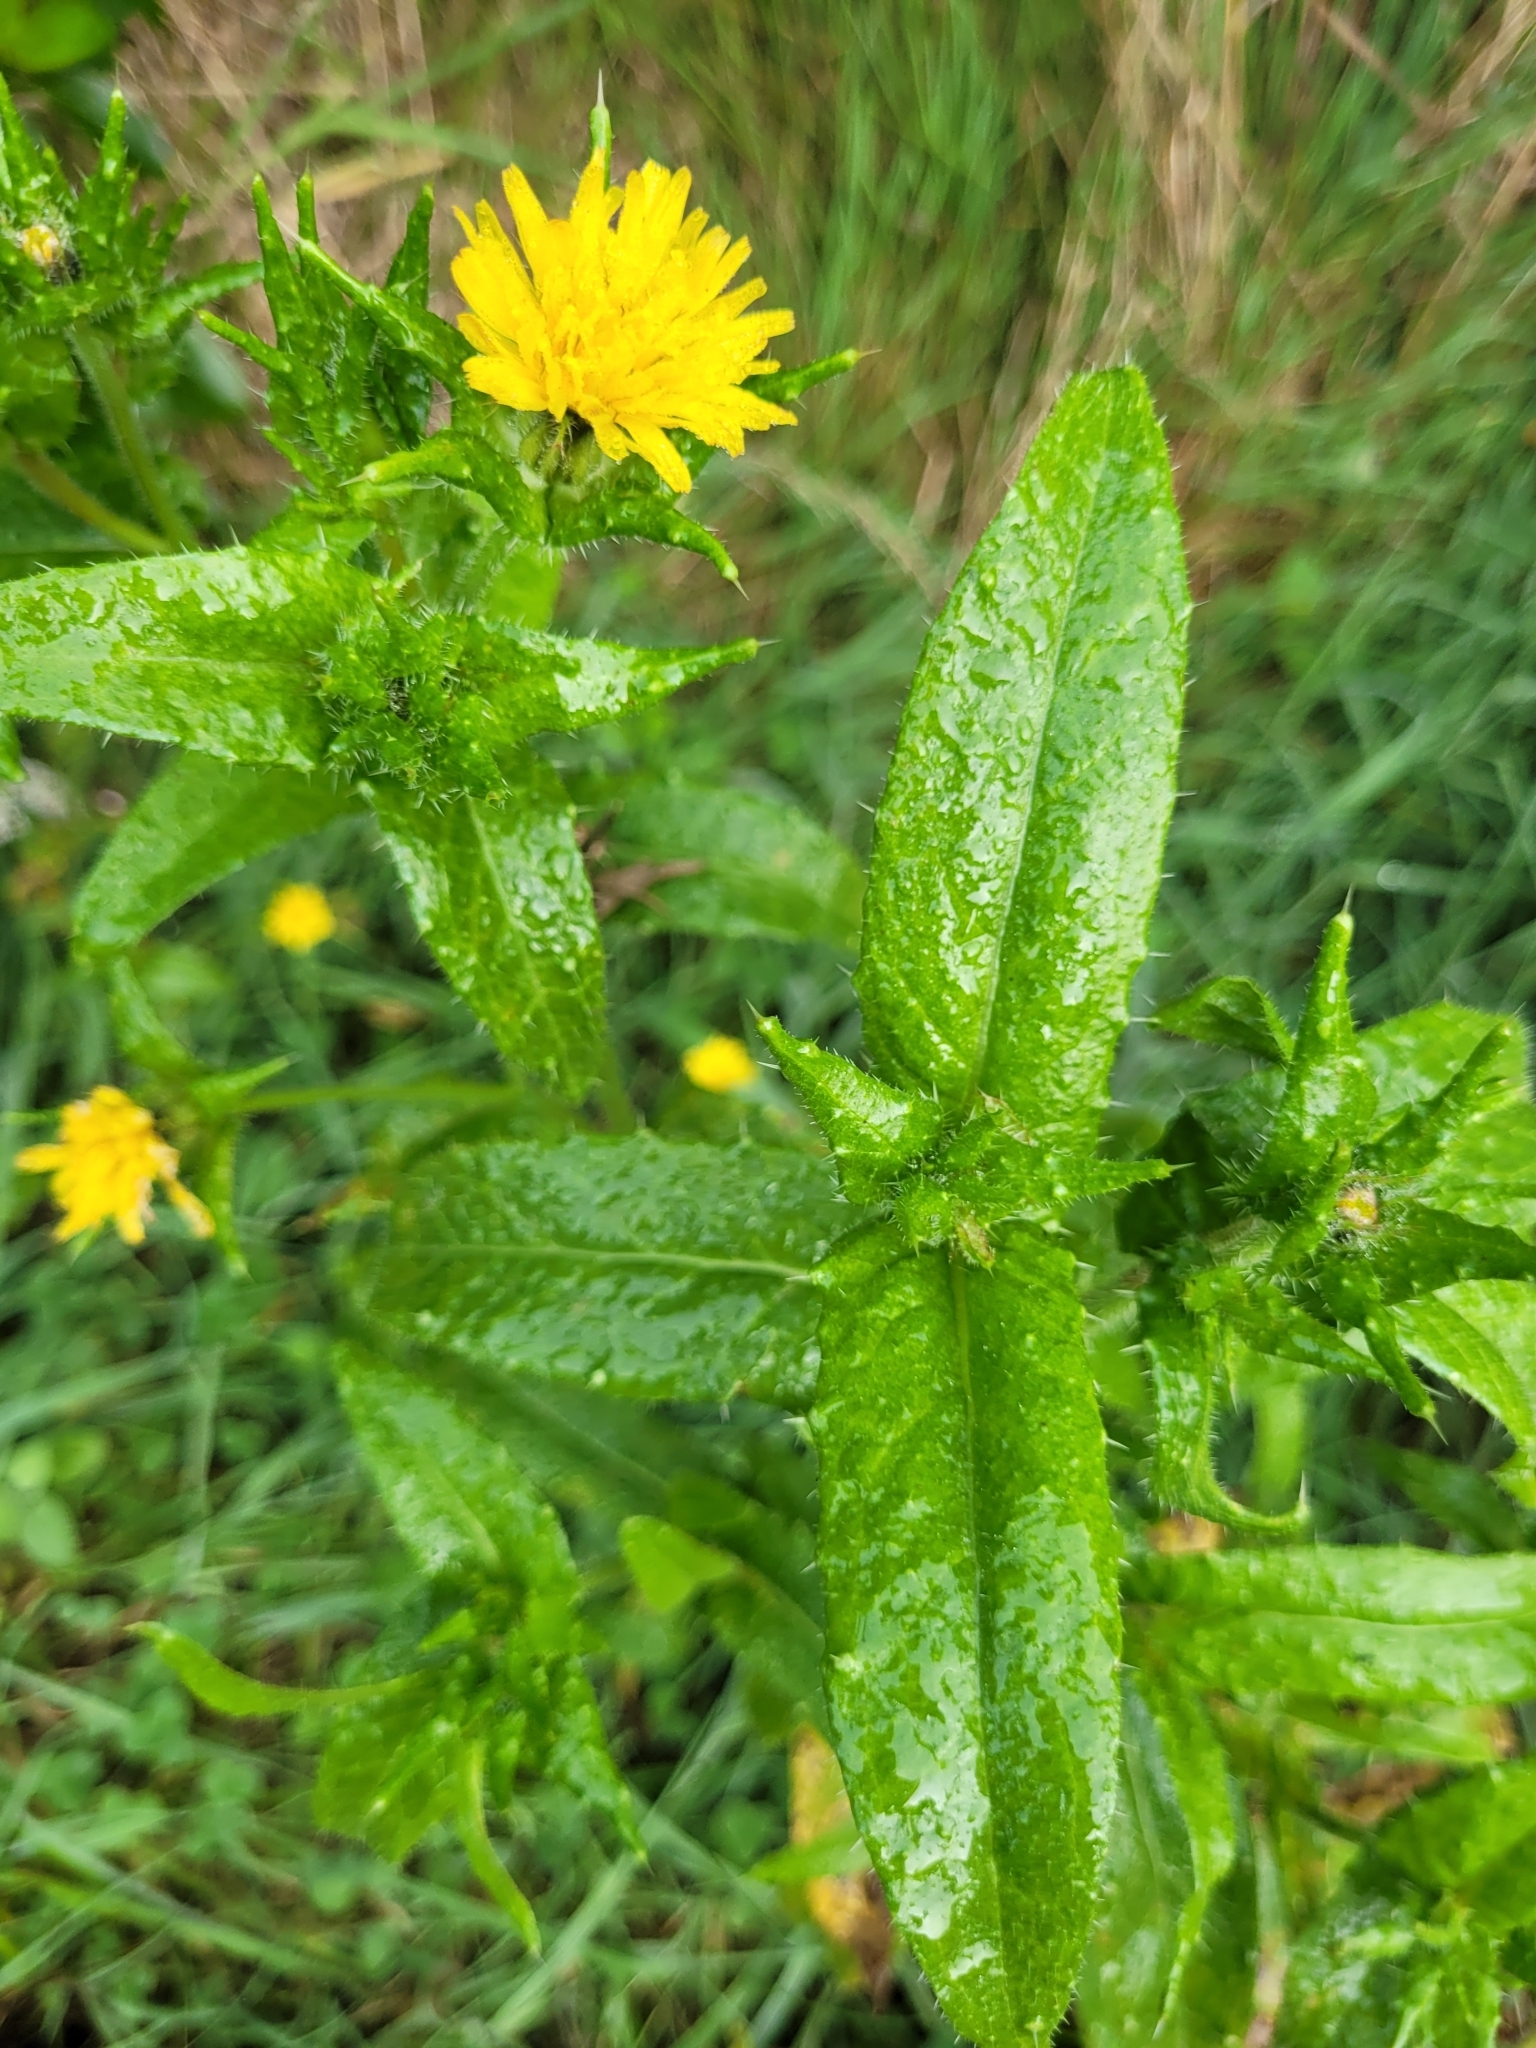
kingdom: Plantae
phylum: Tracheophyta
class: Magnoliopsida
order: Asterales
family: Asteraceae
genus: Helminthotheca
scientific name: Helminthotheca echioides
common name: Ox-tongue
